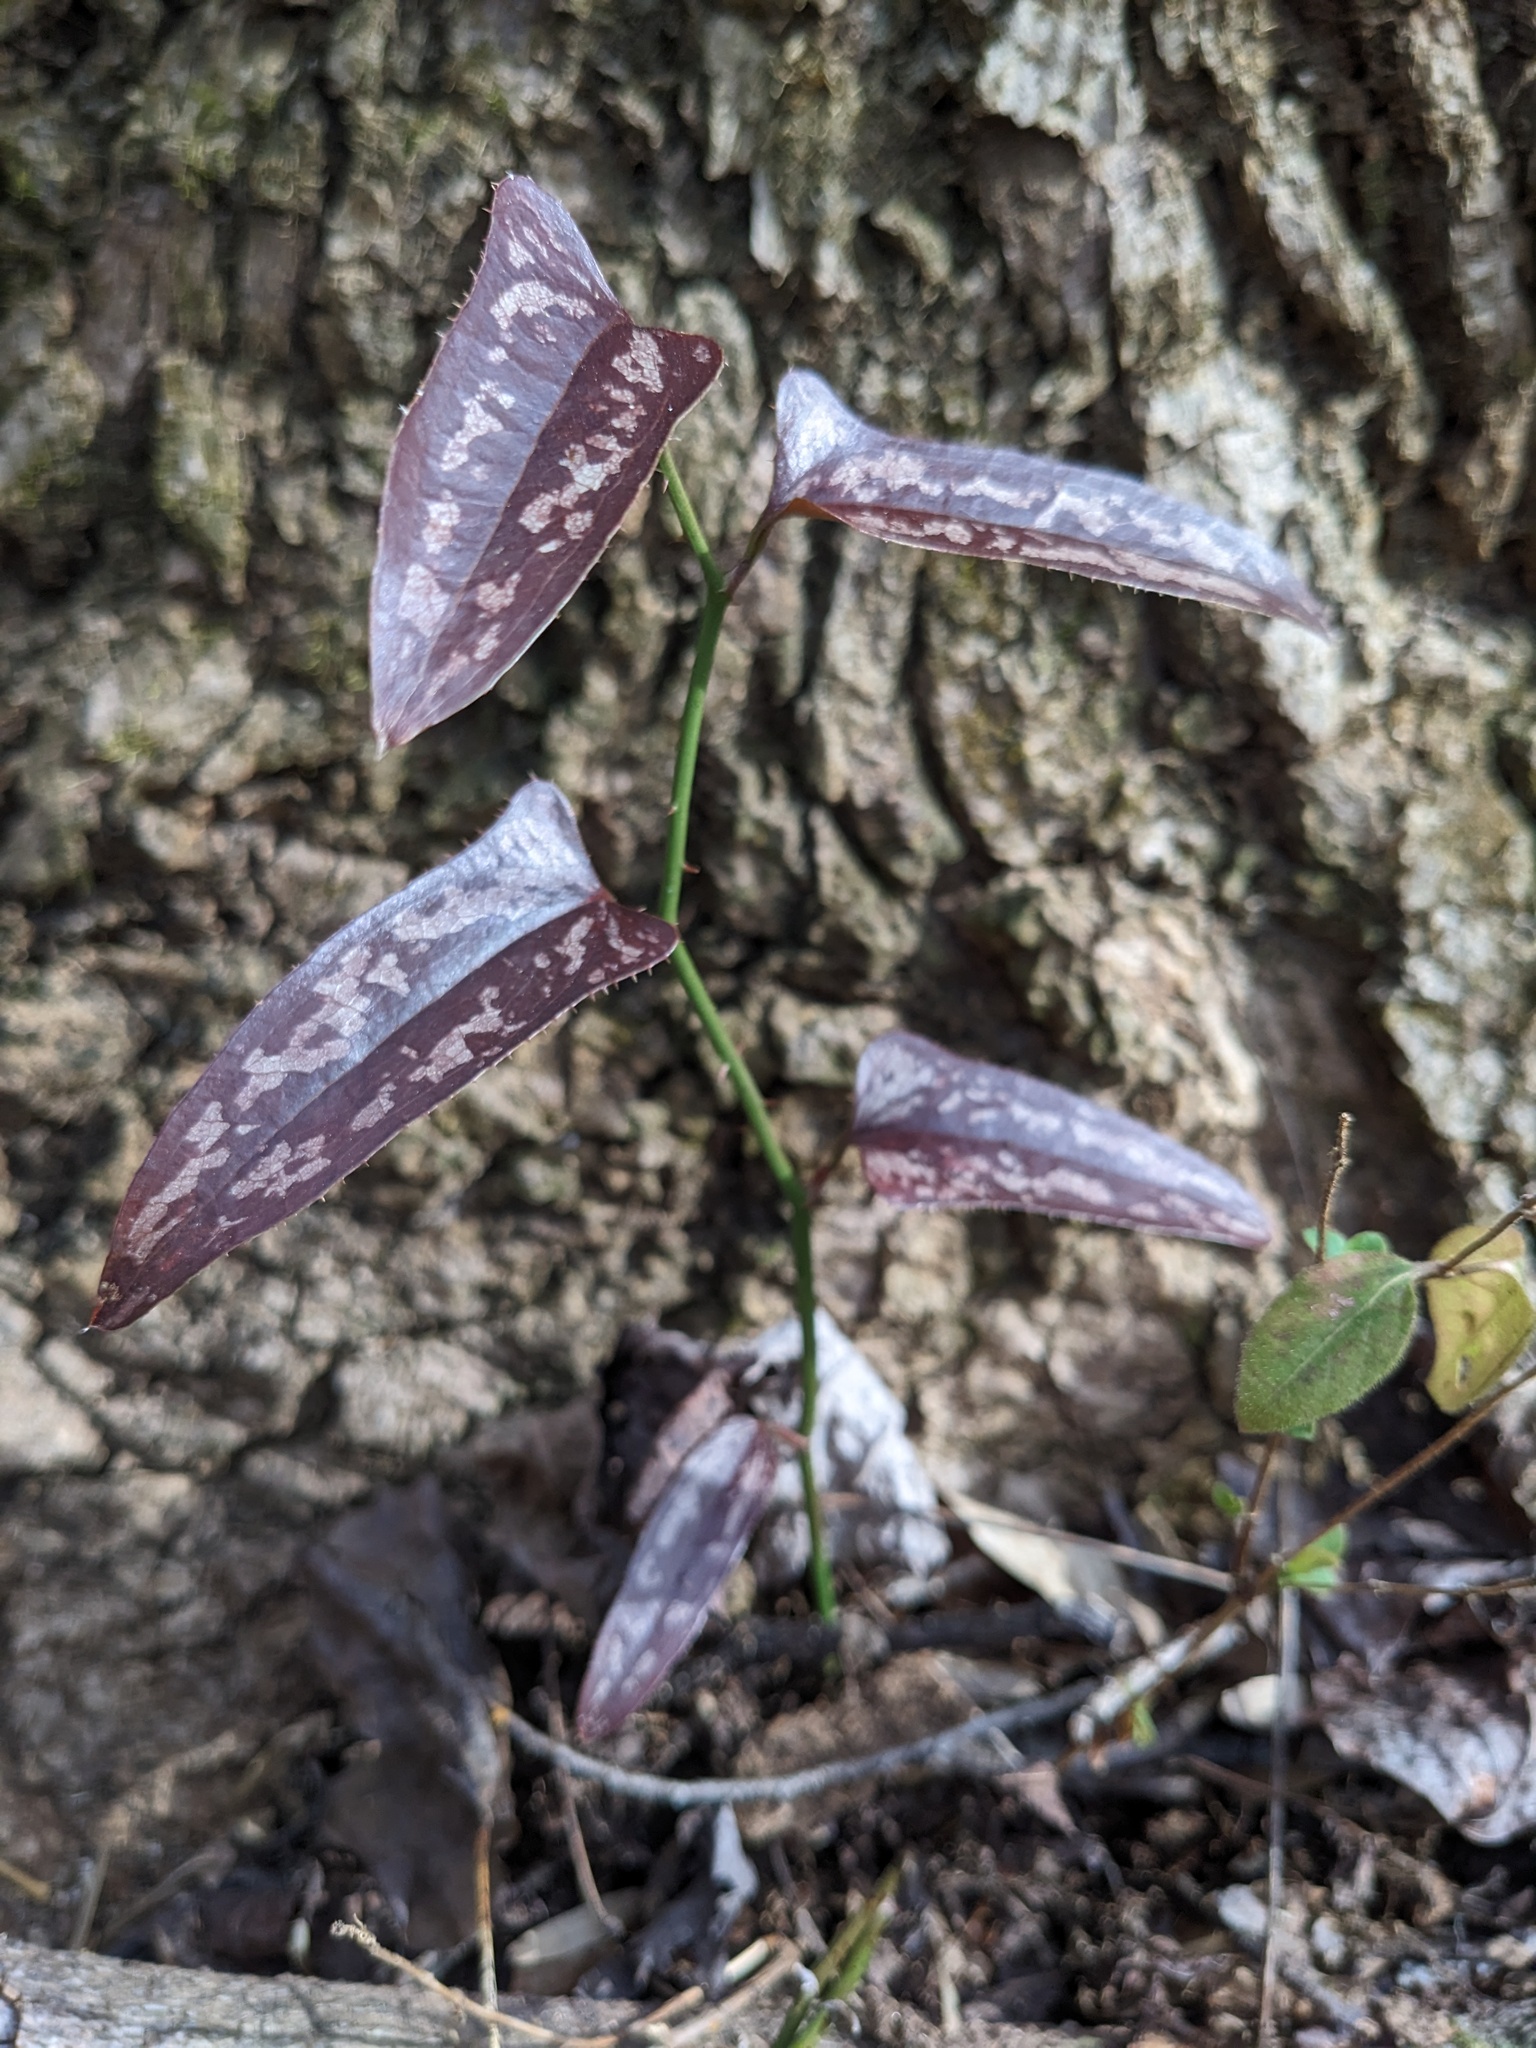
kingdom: Plantae
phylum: Tracheophyta
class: Liliopsida
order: Liliales
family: Smilacaceae
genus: Smilax
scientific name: Smilax bona-nox
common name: Catbrier
